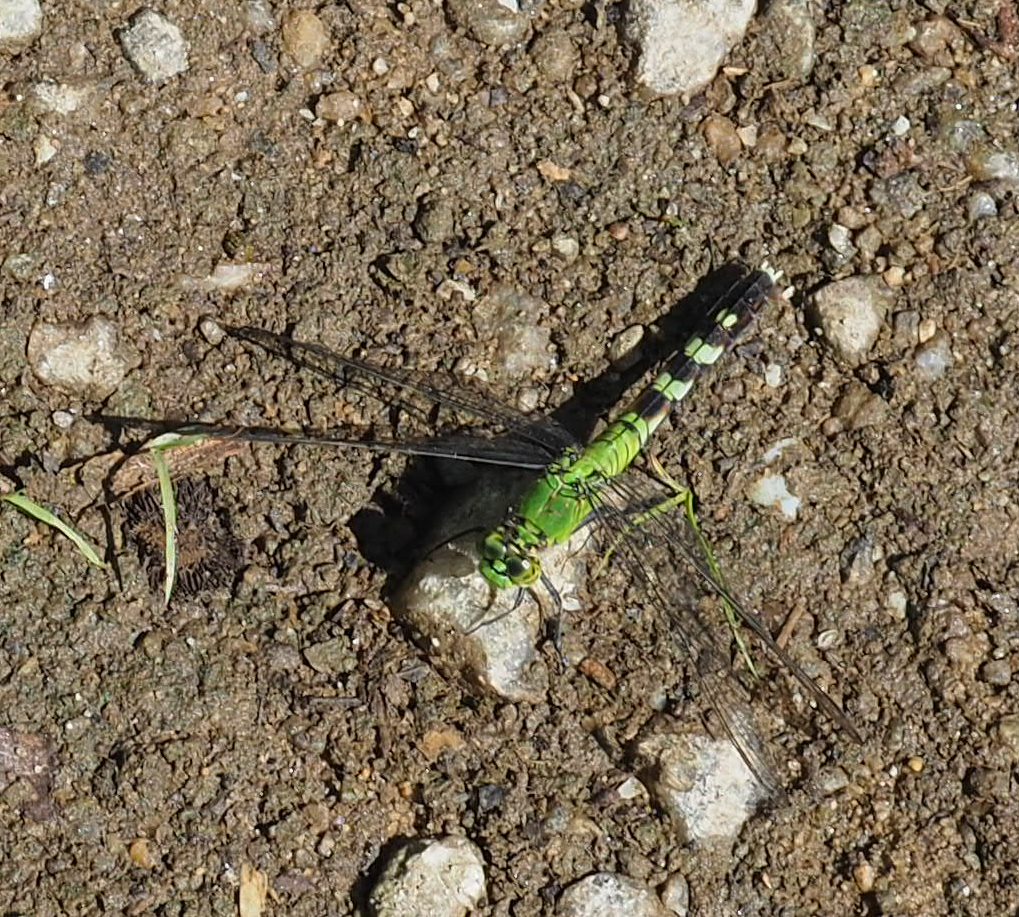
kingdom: Animalia
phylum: Arthropoda
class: Insecta
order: Odonata
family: Libellulidae
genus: Erythemis
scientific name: Erythemis simplicicollis
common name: Eastern pondhawk
